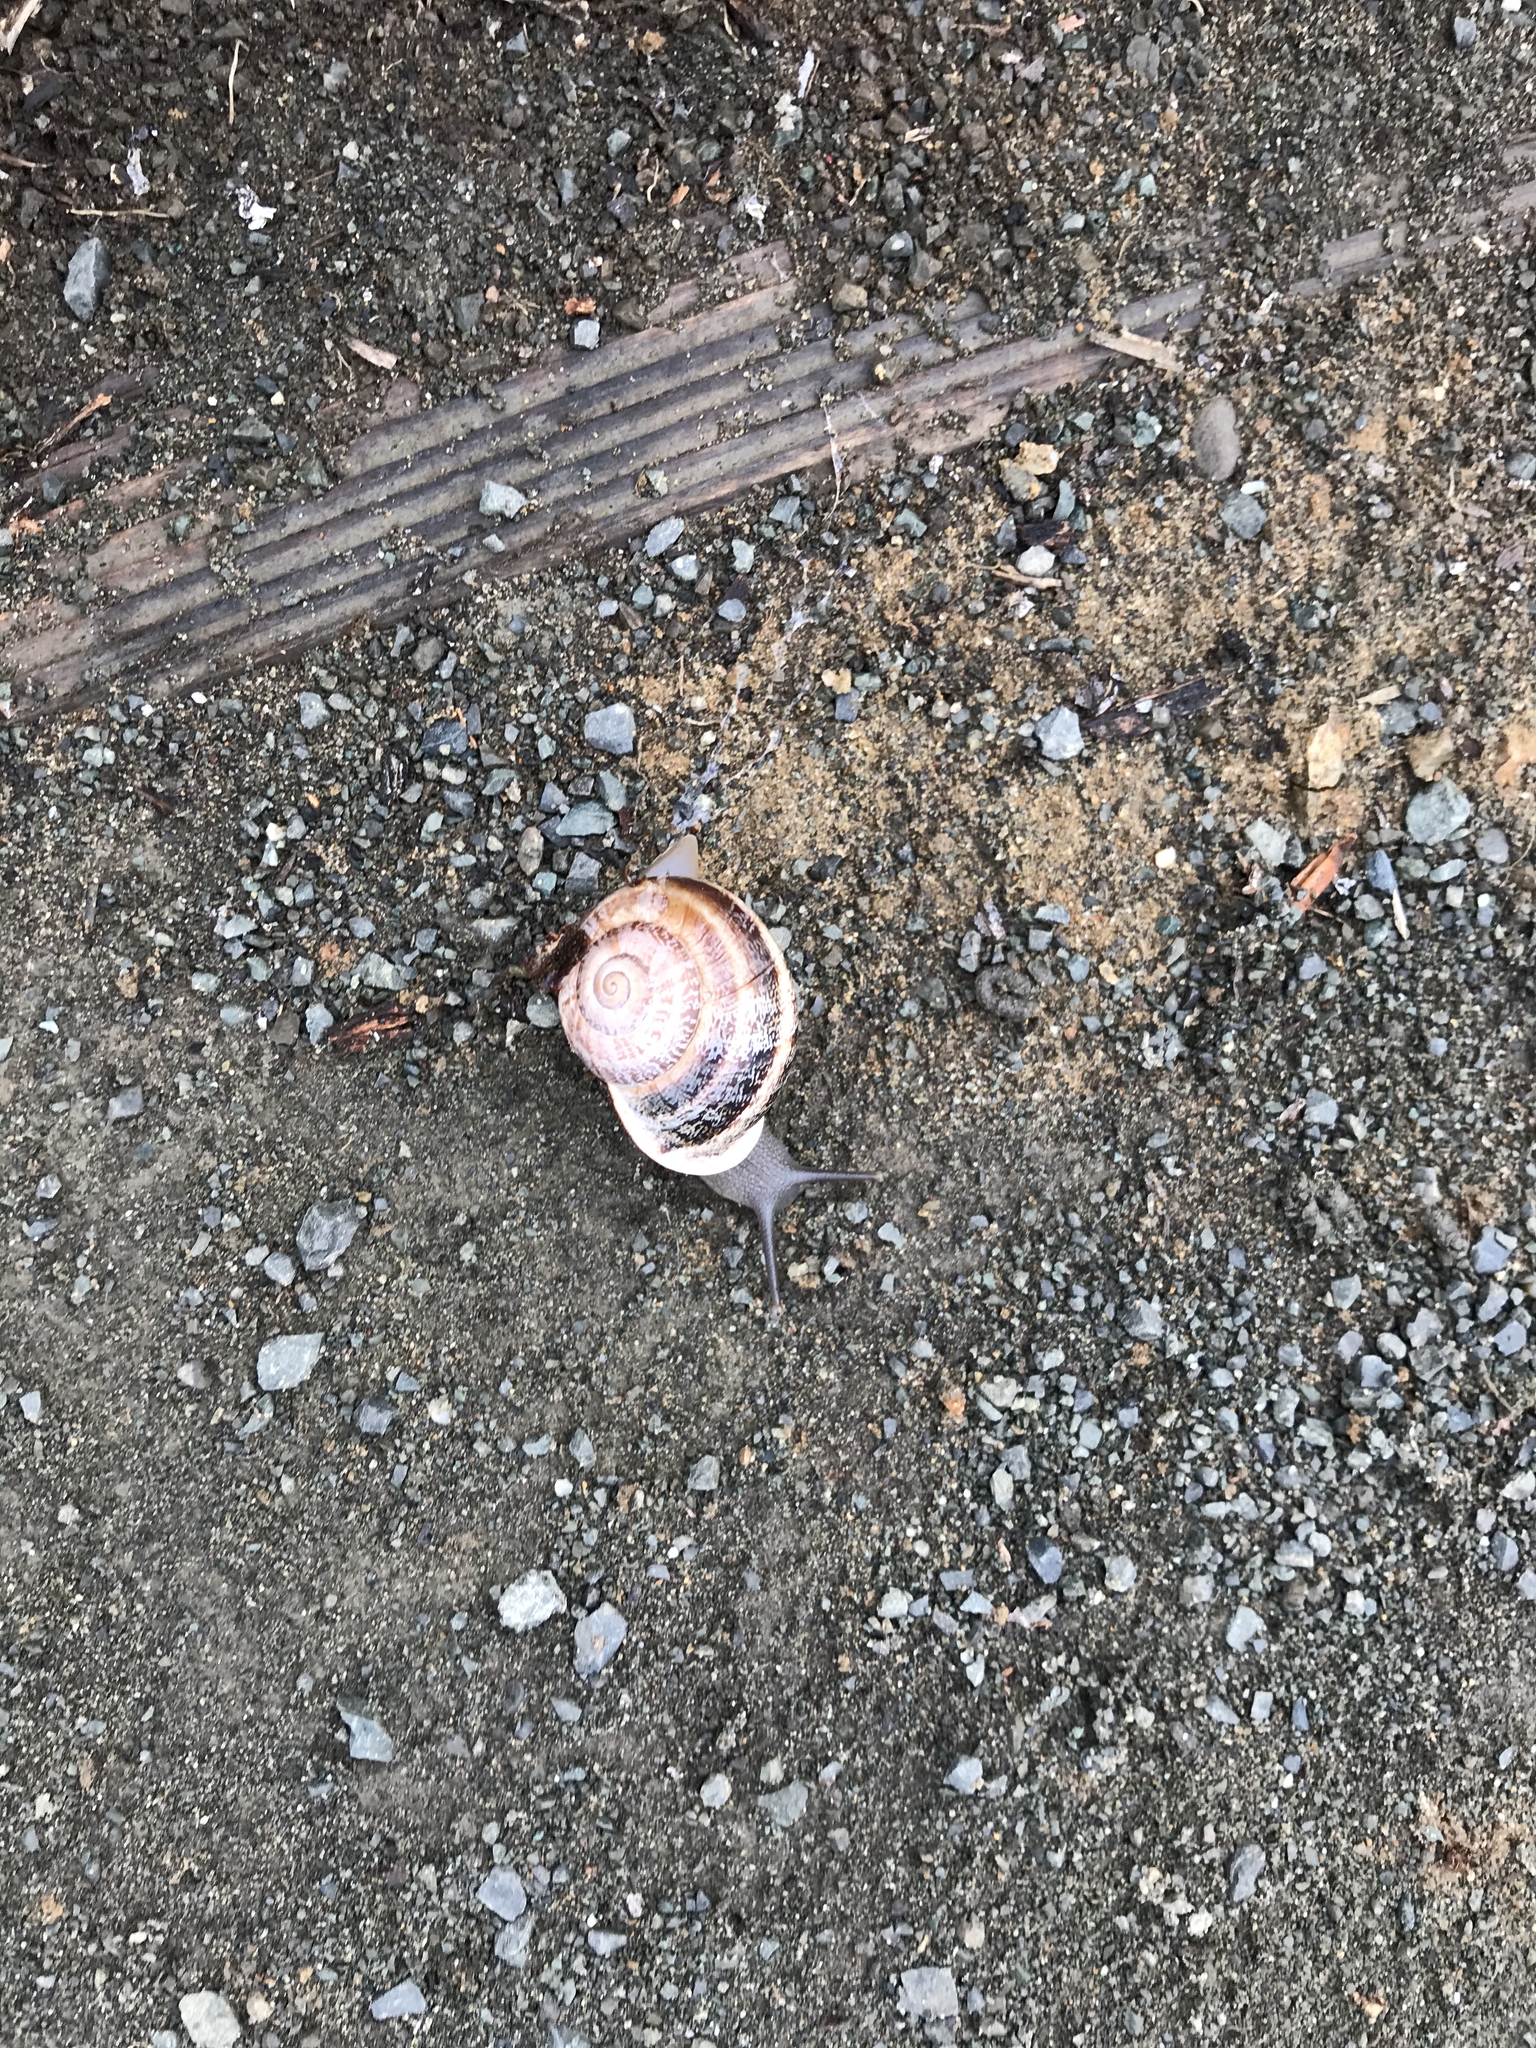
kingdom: Animalia
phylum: Mollusca
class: Gastropoda
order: Stylommatophora
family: Helicidae
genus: Otala
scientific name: Otala lactea
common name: Milk snail
